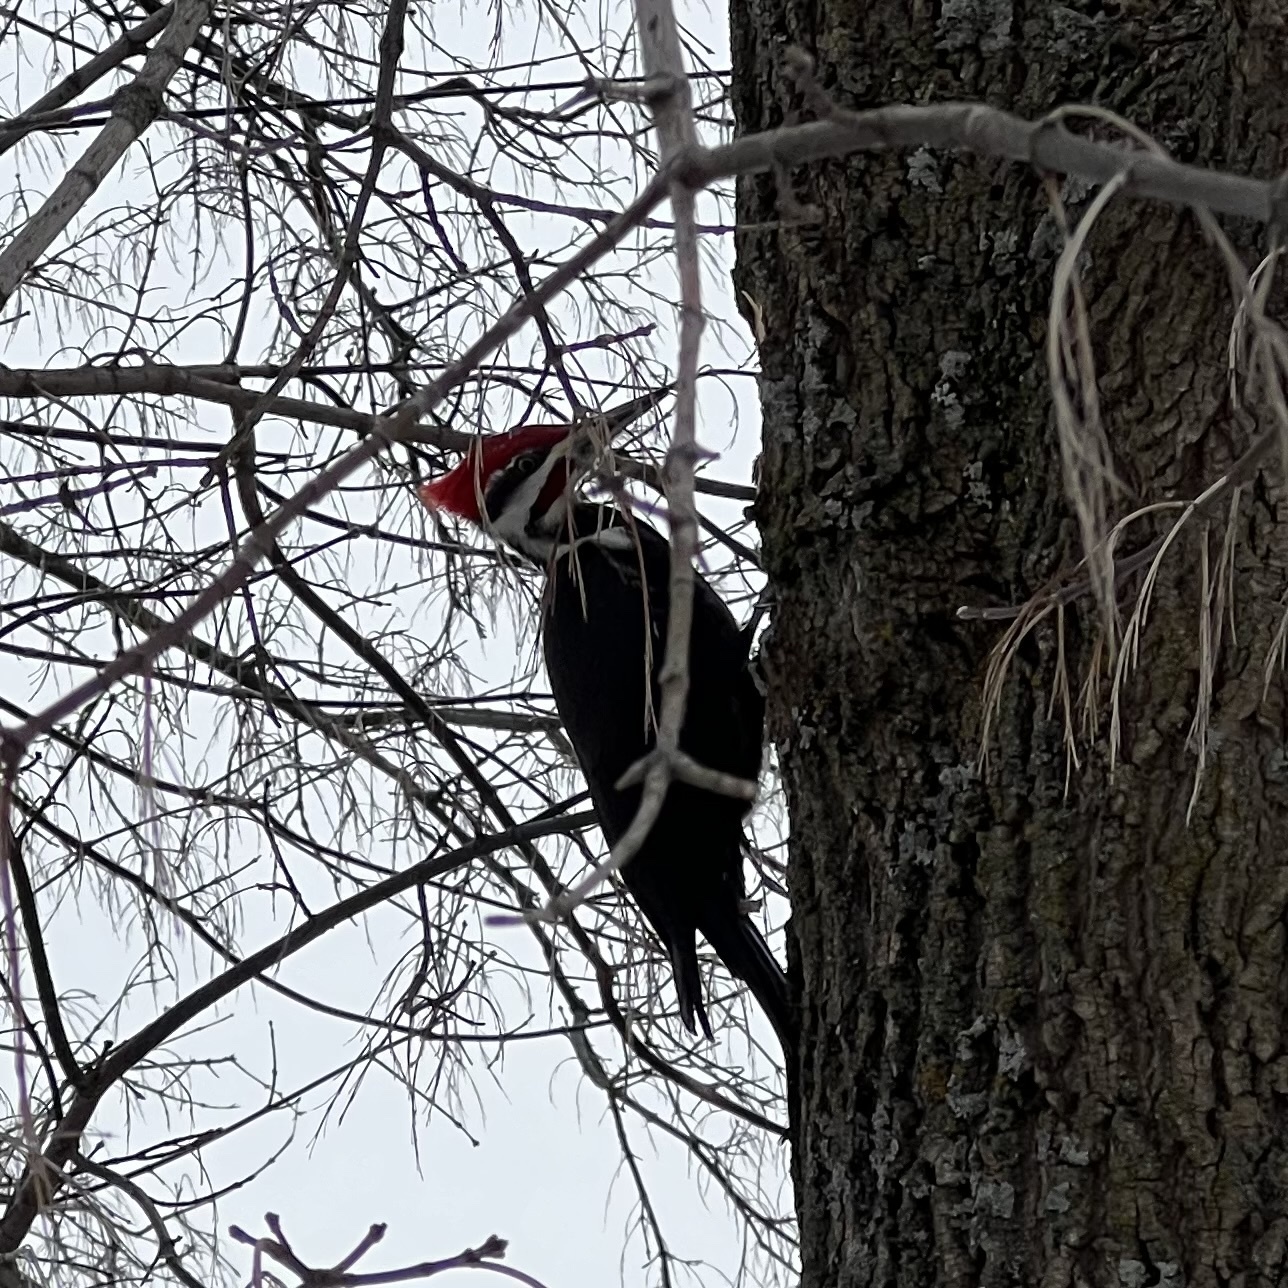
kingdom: Animalia
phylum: Chordata
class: Aves
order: Piciformes
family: Picidae
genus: Dryocopus
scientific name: Dryocopus pileatus
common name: Pileated woodpecker
